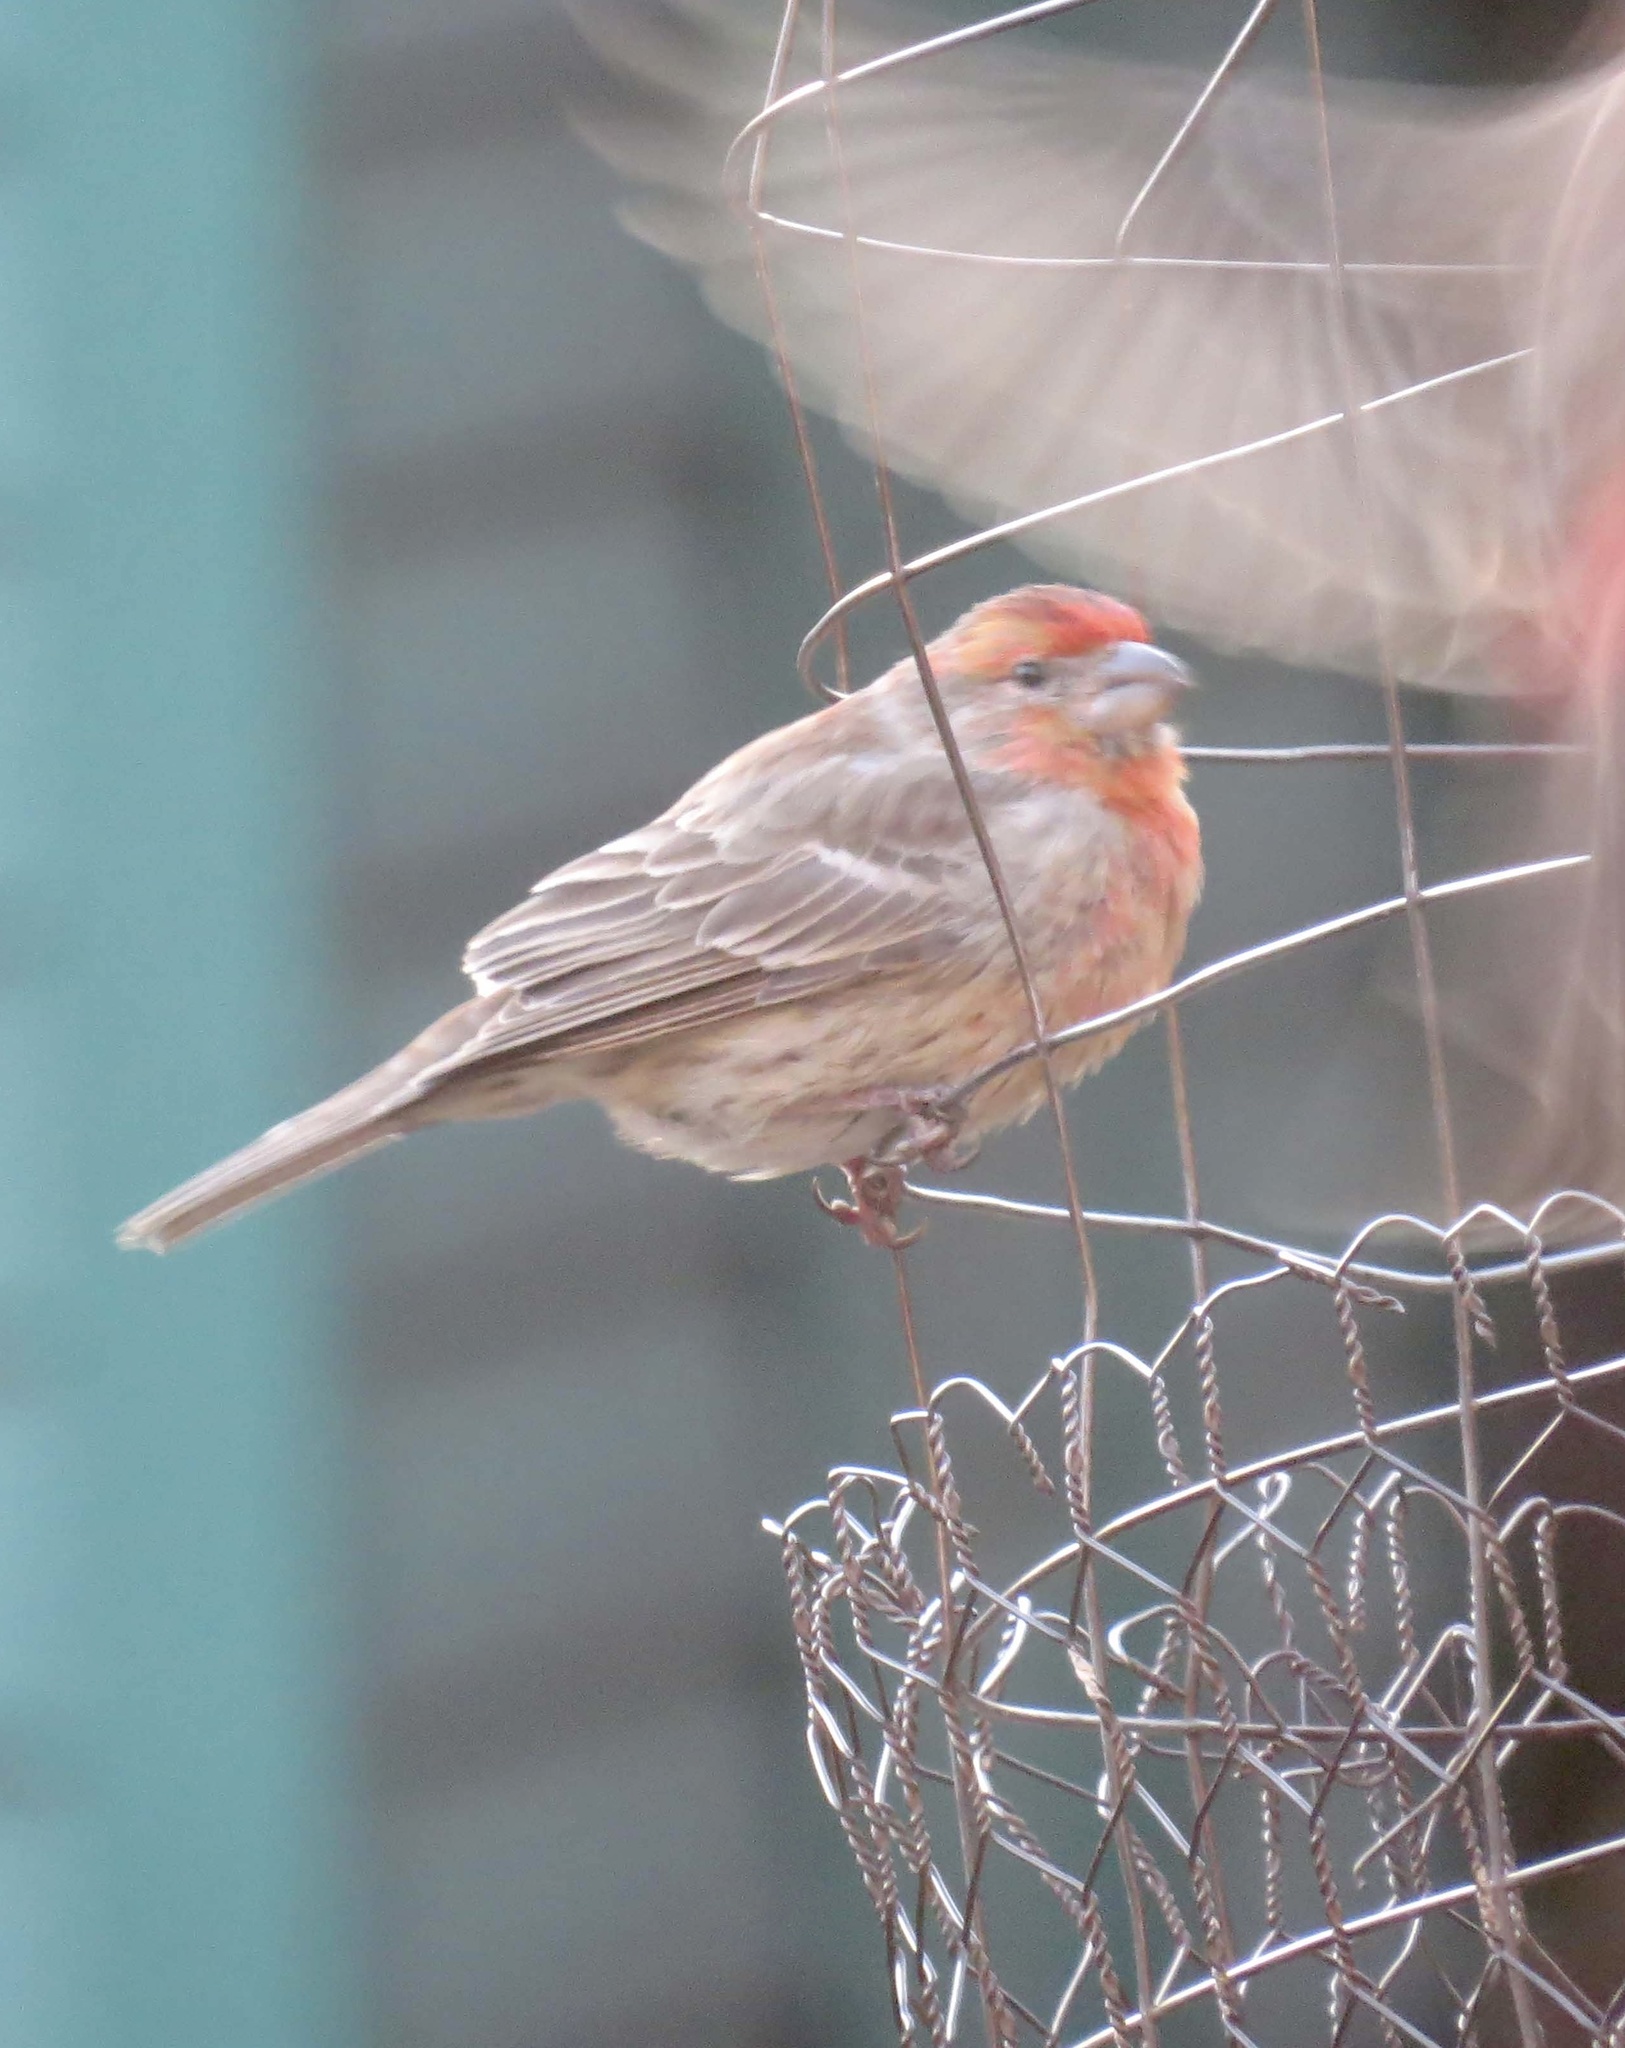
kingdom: Animalia
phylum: Chordata
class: Aves
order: Passeriformes
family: Fringillidae
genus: Haemorhous
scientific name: Haemorhous mexicanus
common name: House finch
